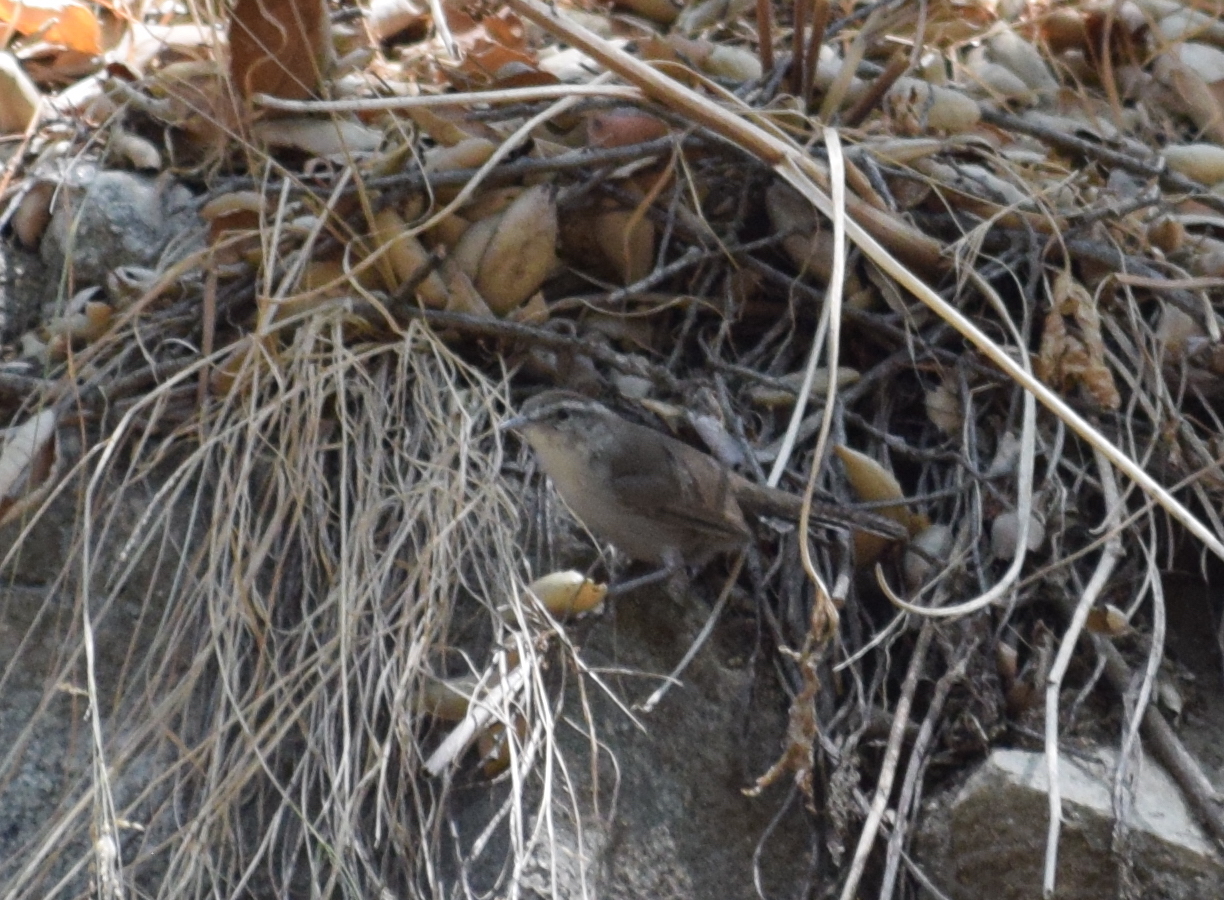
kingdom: Animalia
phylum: Chordata
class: Aves
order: Passeriformes
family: Troglodytidae
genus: Thryomanes
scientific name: Thryomanes bewickii
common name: Bewick's wren
